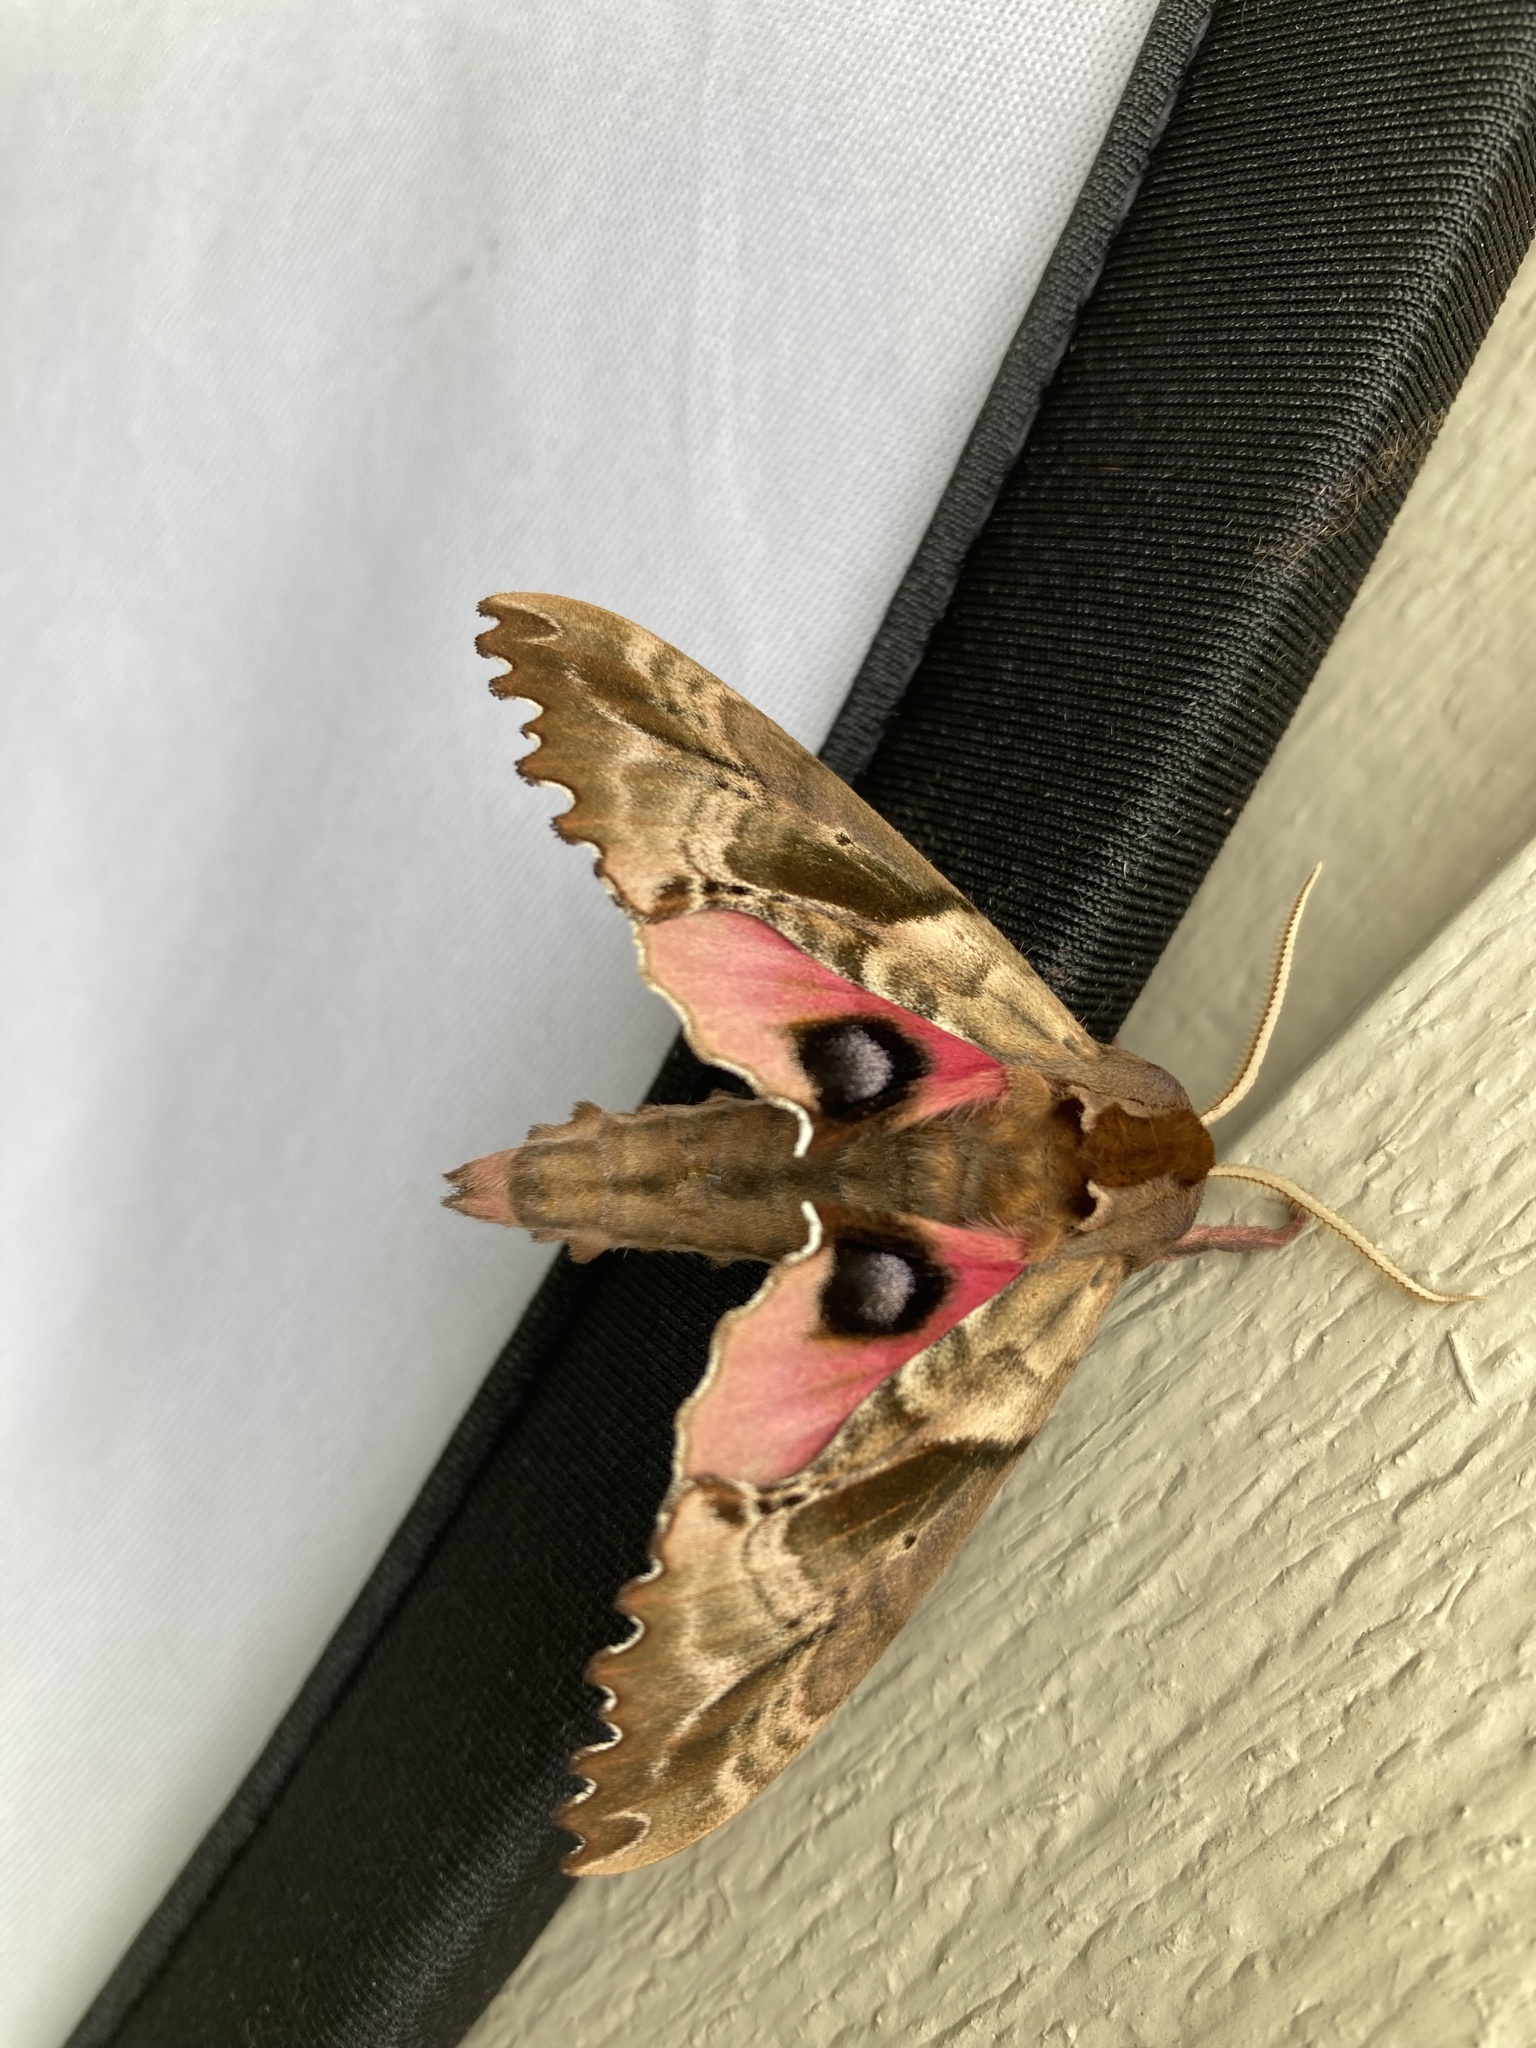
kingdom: Animalia
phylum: Arthropoda
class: Insecta
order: Lepidoptera
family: Sphingidae
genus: Paonias
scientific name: Paonias excaecata
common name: Blind-eyed sphinx
